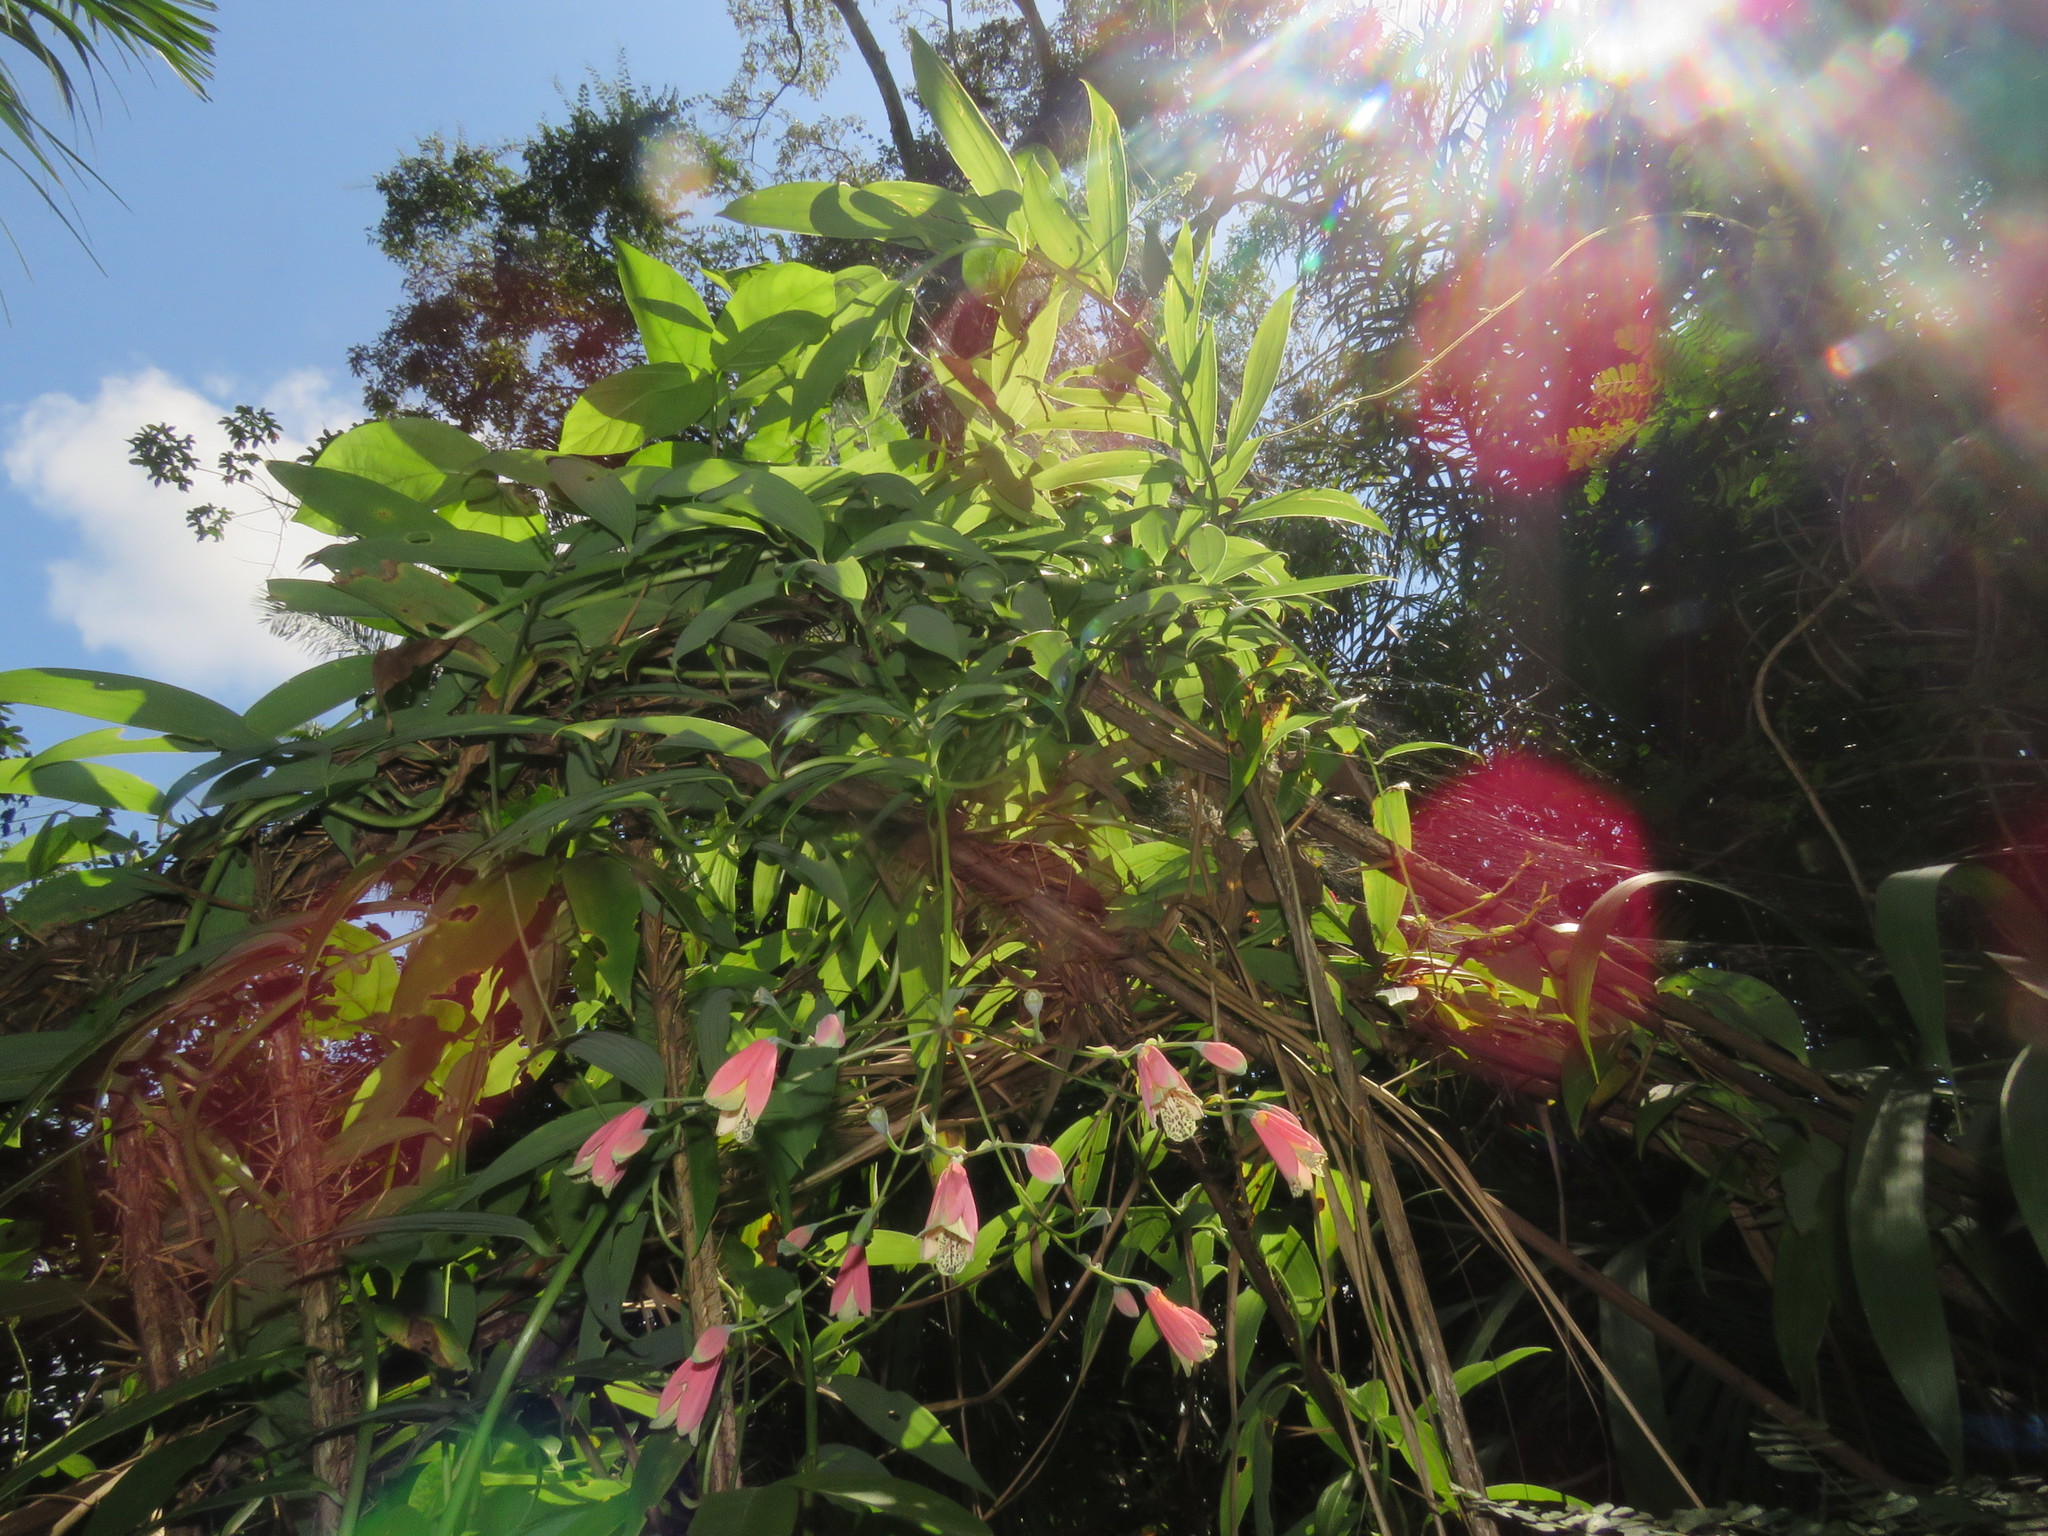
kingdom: Plantae
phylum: Tracheophyta
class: Liliopsida
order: Liliales
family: Alstroemeriaceae
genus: Bomarea
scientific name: Bomarea edulis
